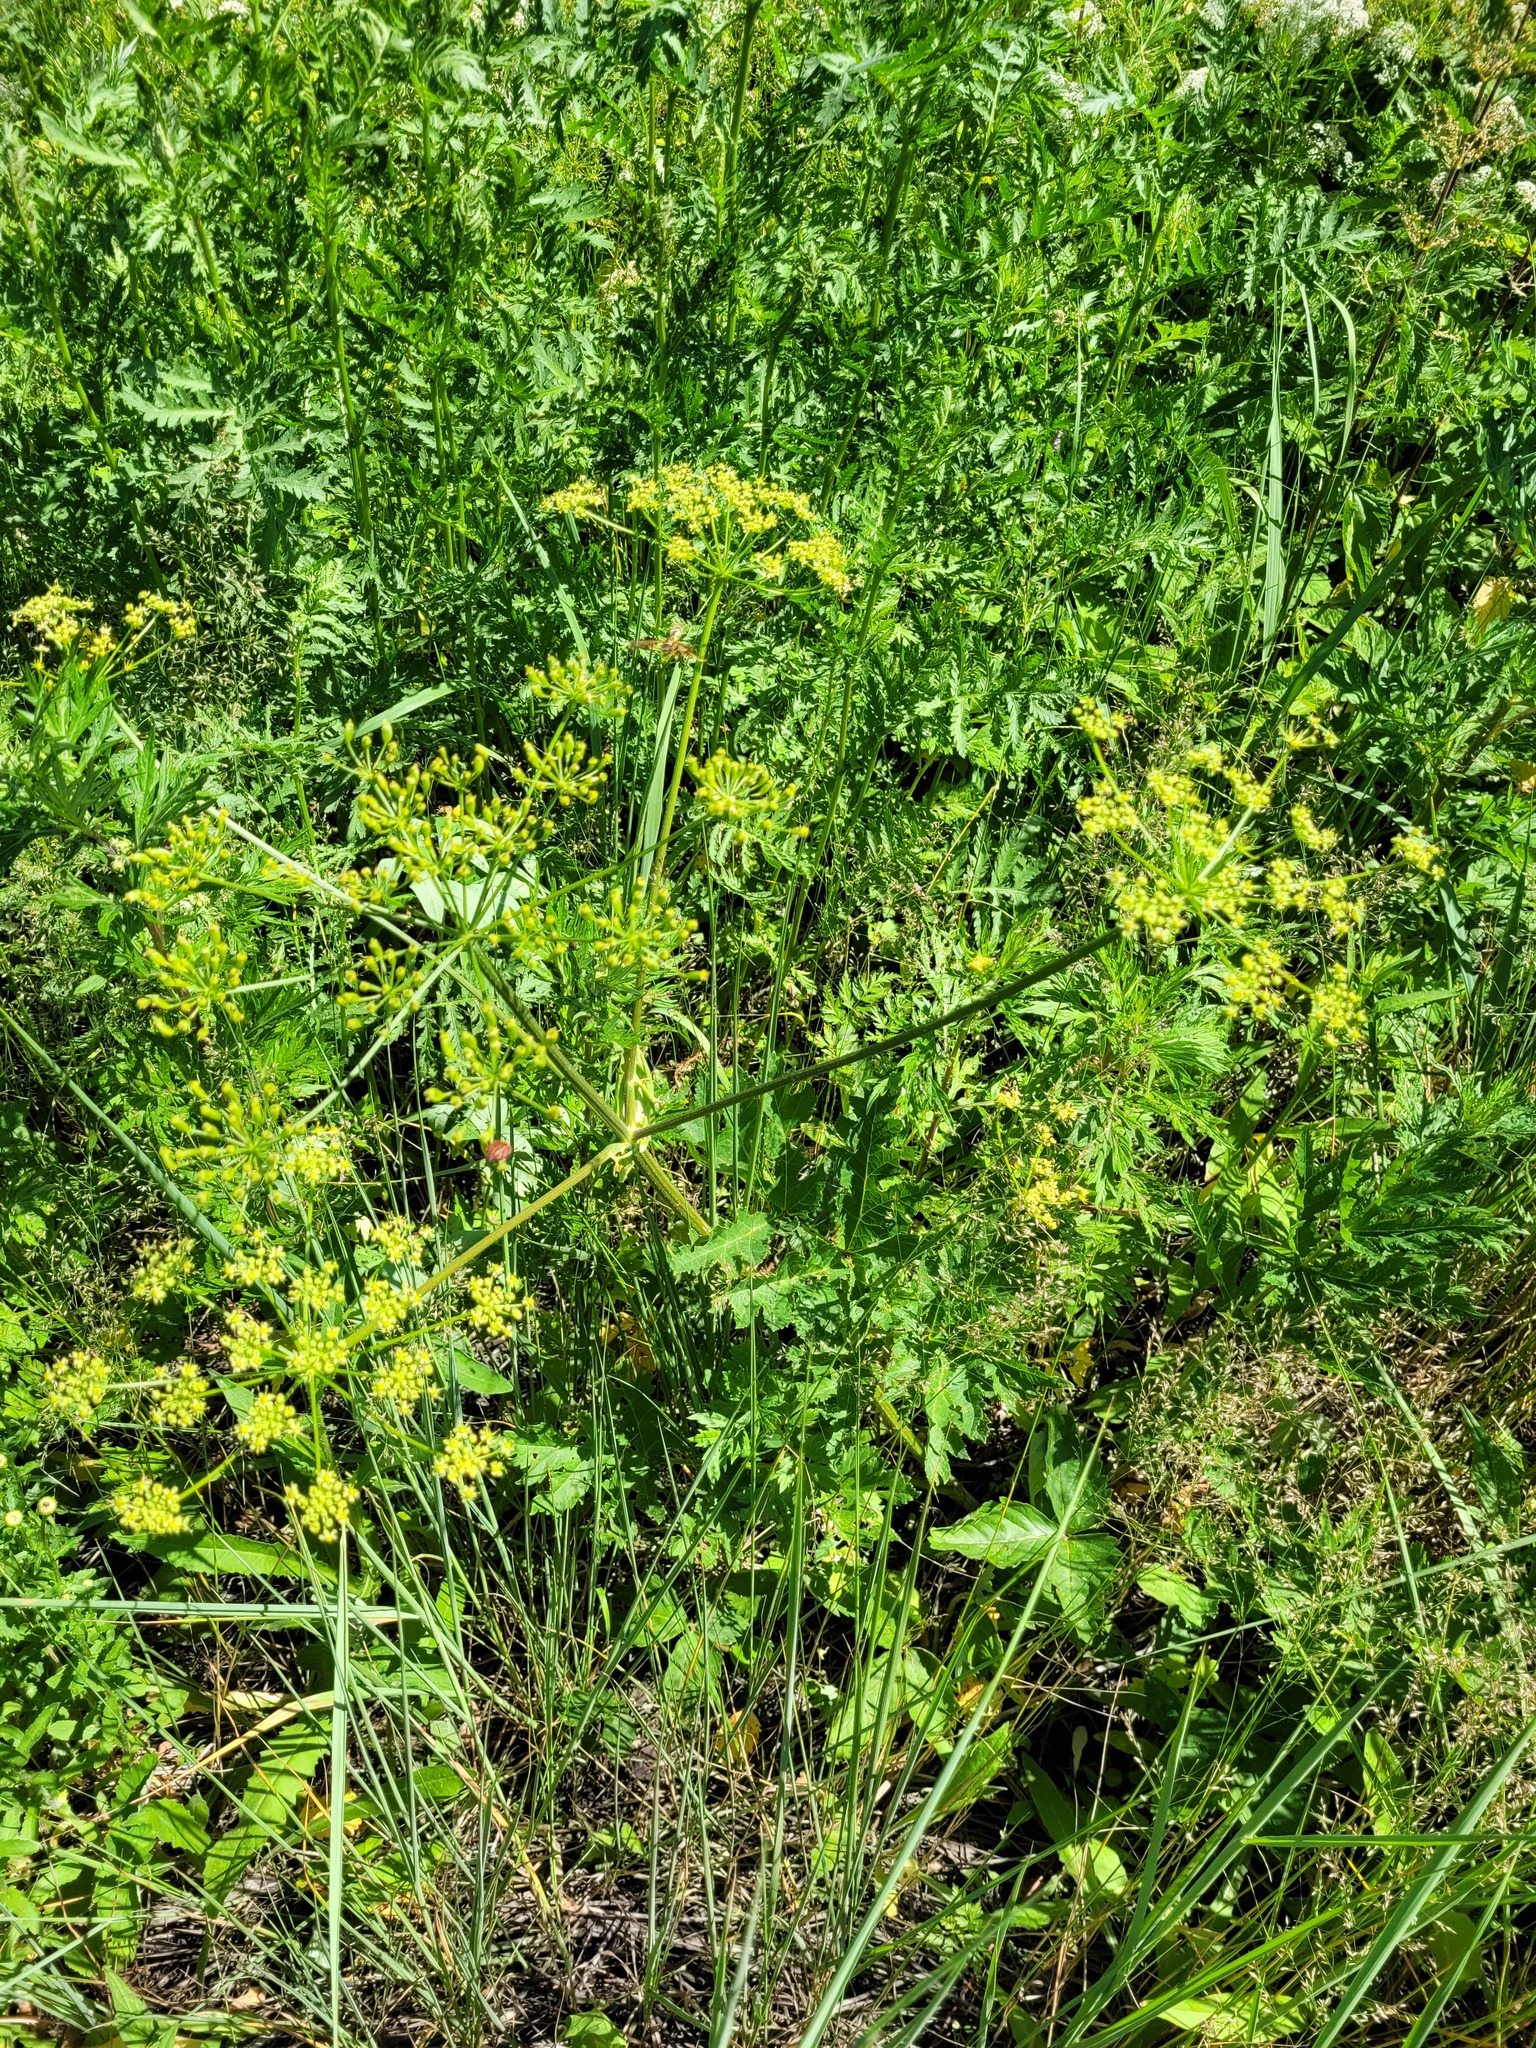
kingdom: Plantae
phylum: Tracheophyta
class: Magnoliopsida
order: Apiales
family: Apiaceae
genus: Heracleum
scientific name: Heracleum sphondylium
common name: Hogweed
